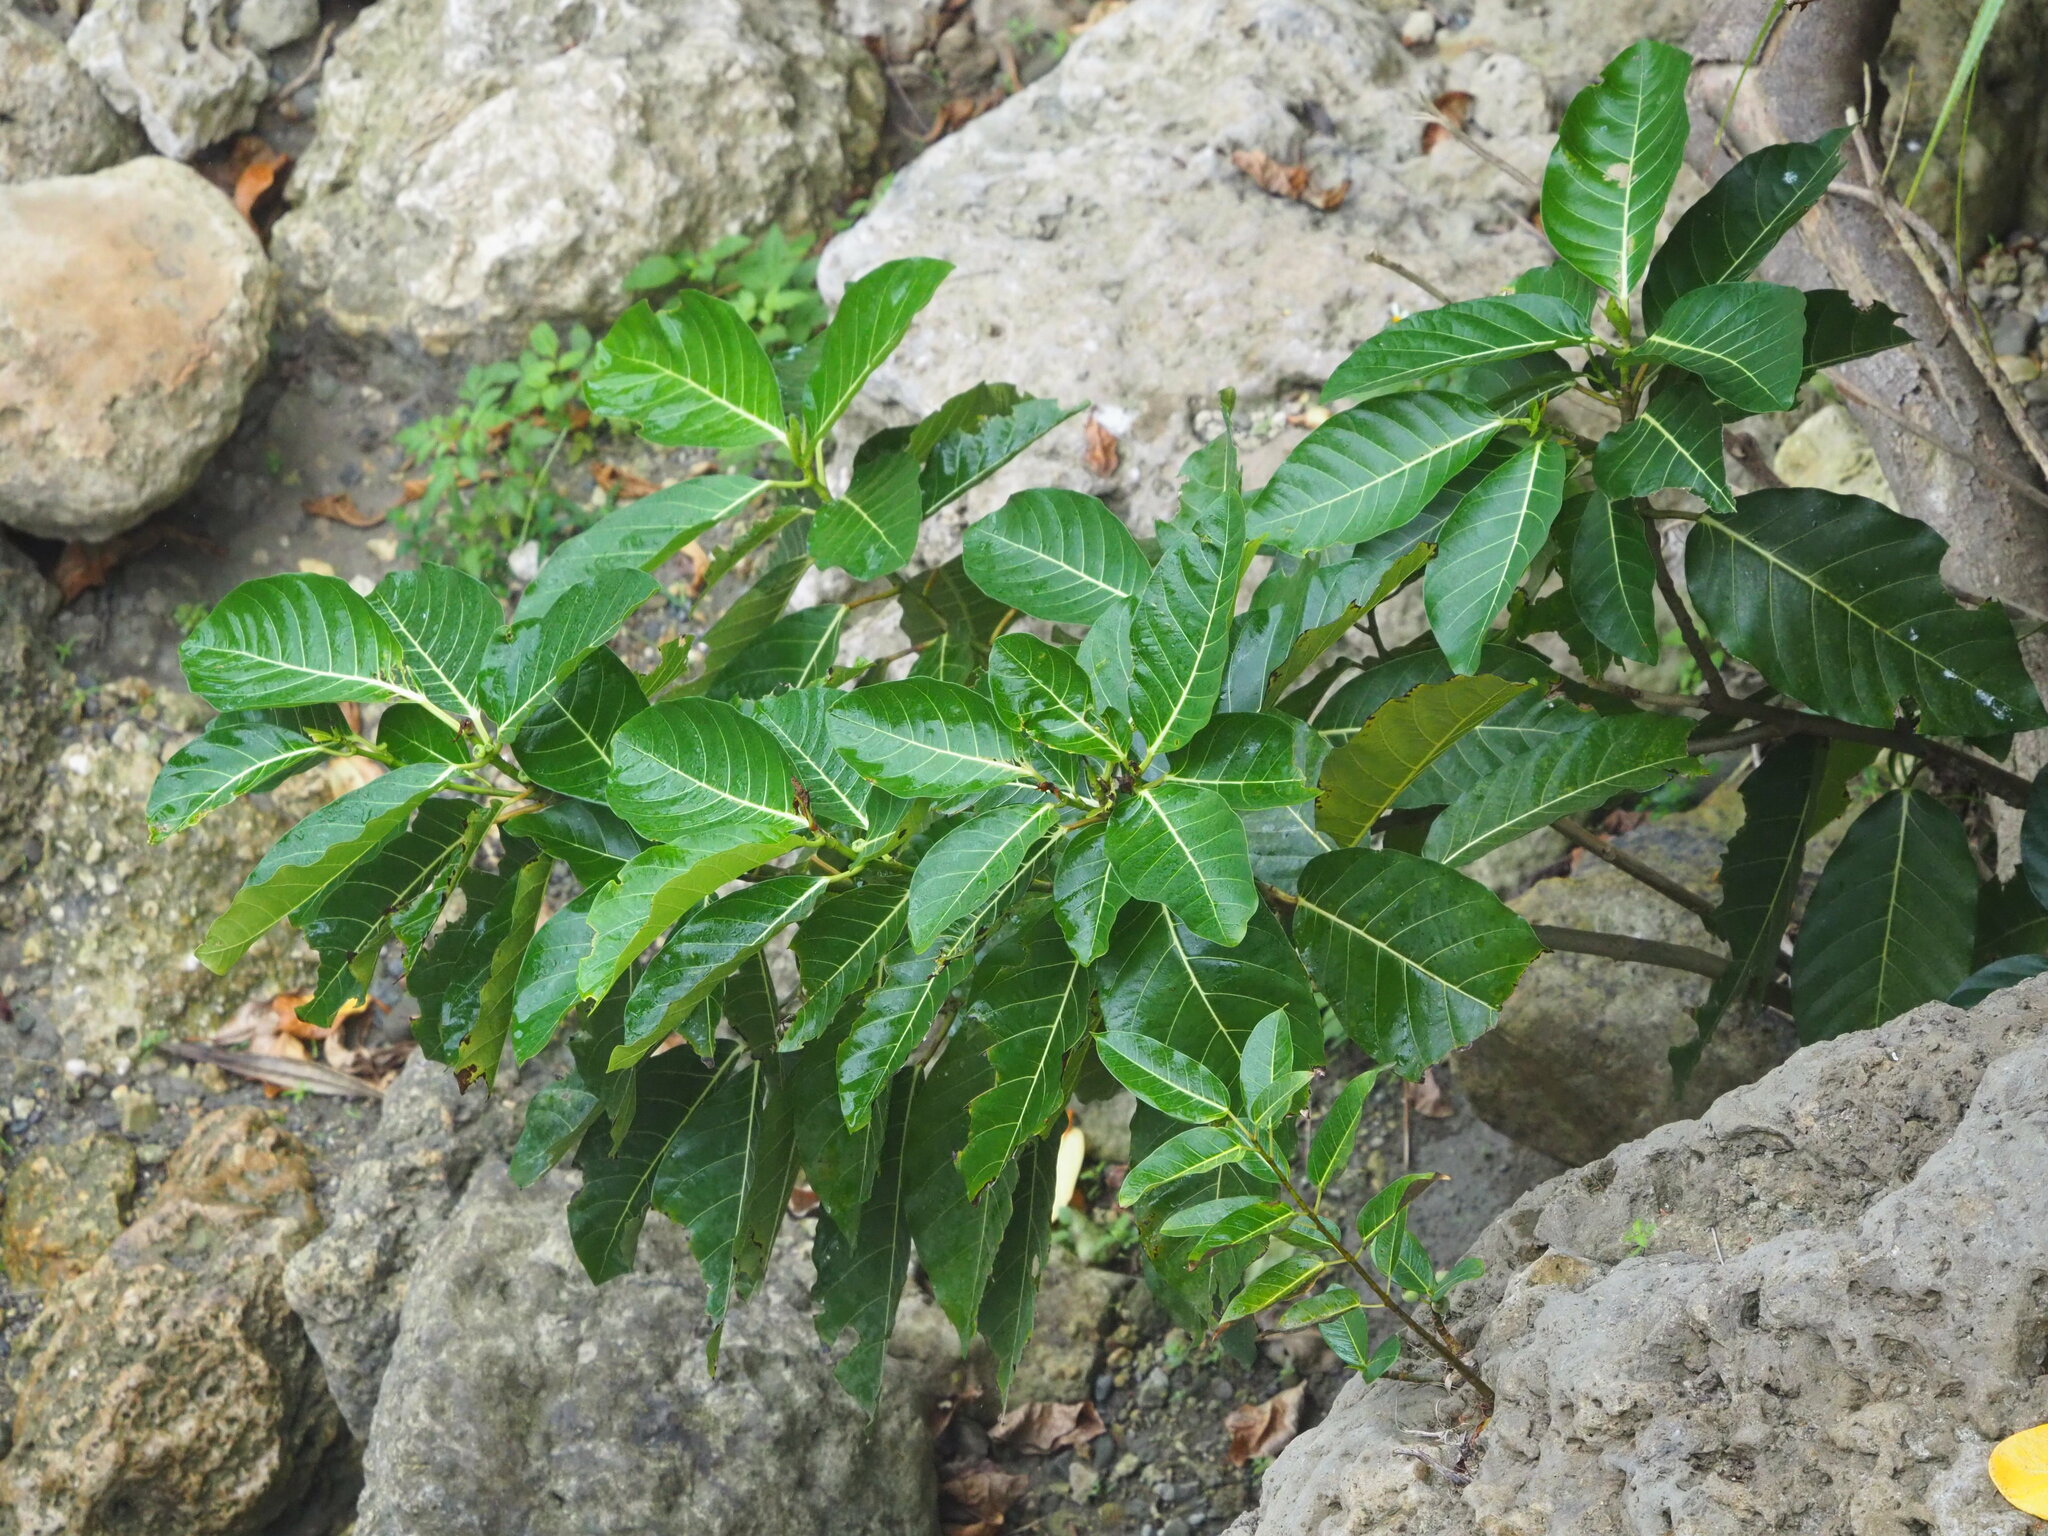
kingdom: Plantae
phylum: Tracheophyta
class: Magnoliopsida
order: Rosales
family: Moraceae
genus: Ficus
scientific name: Ficus septica
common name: Septic fig
